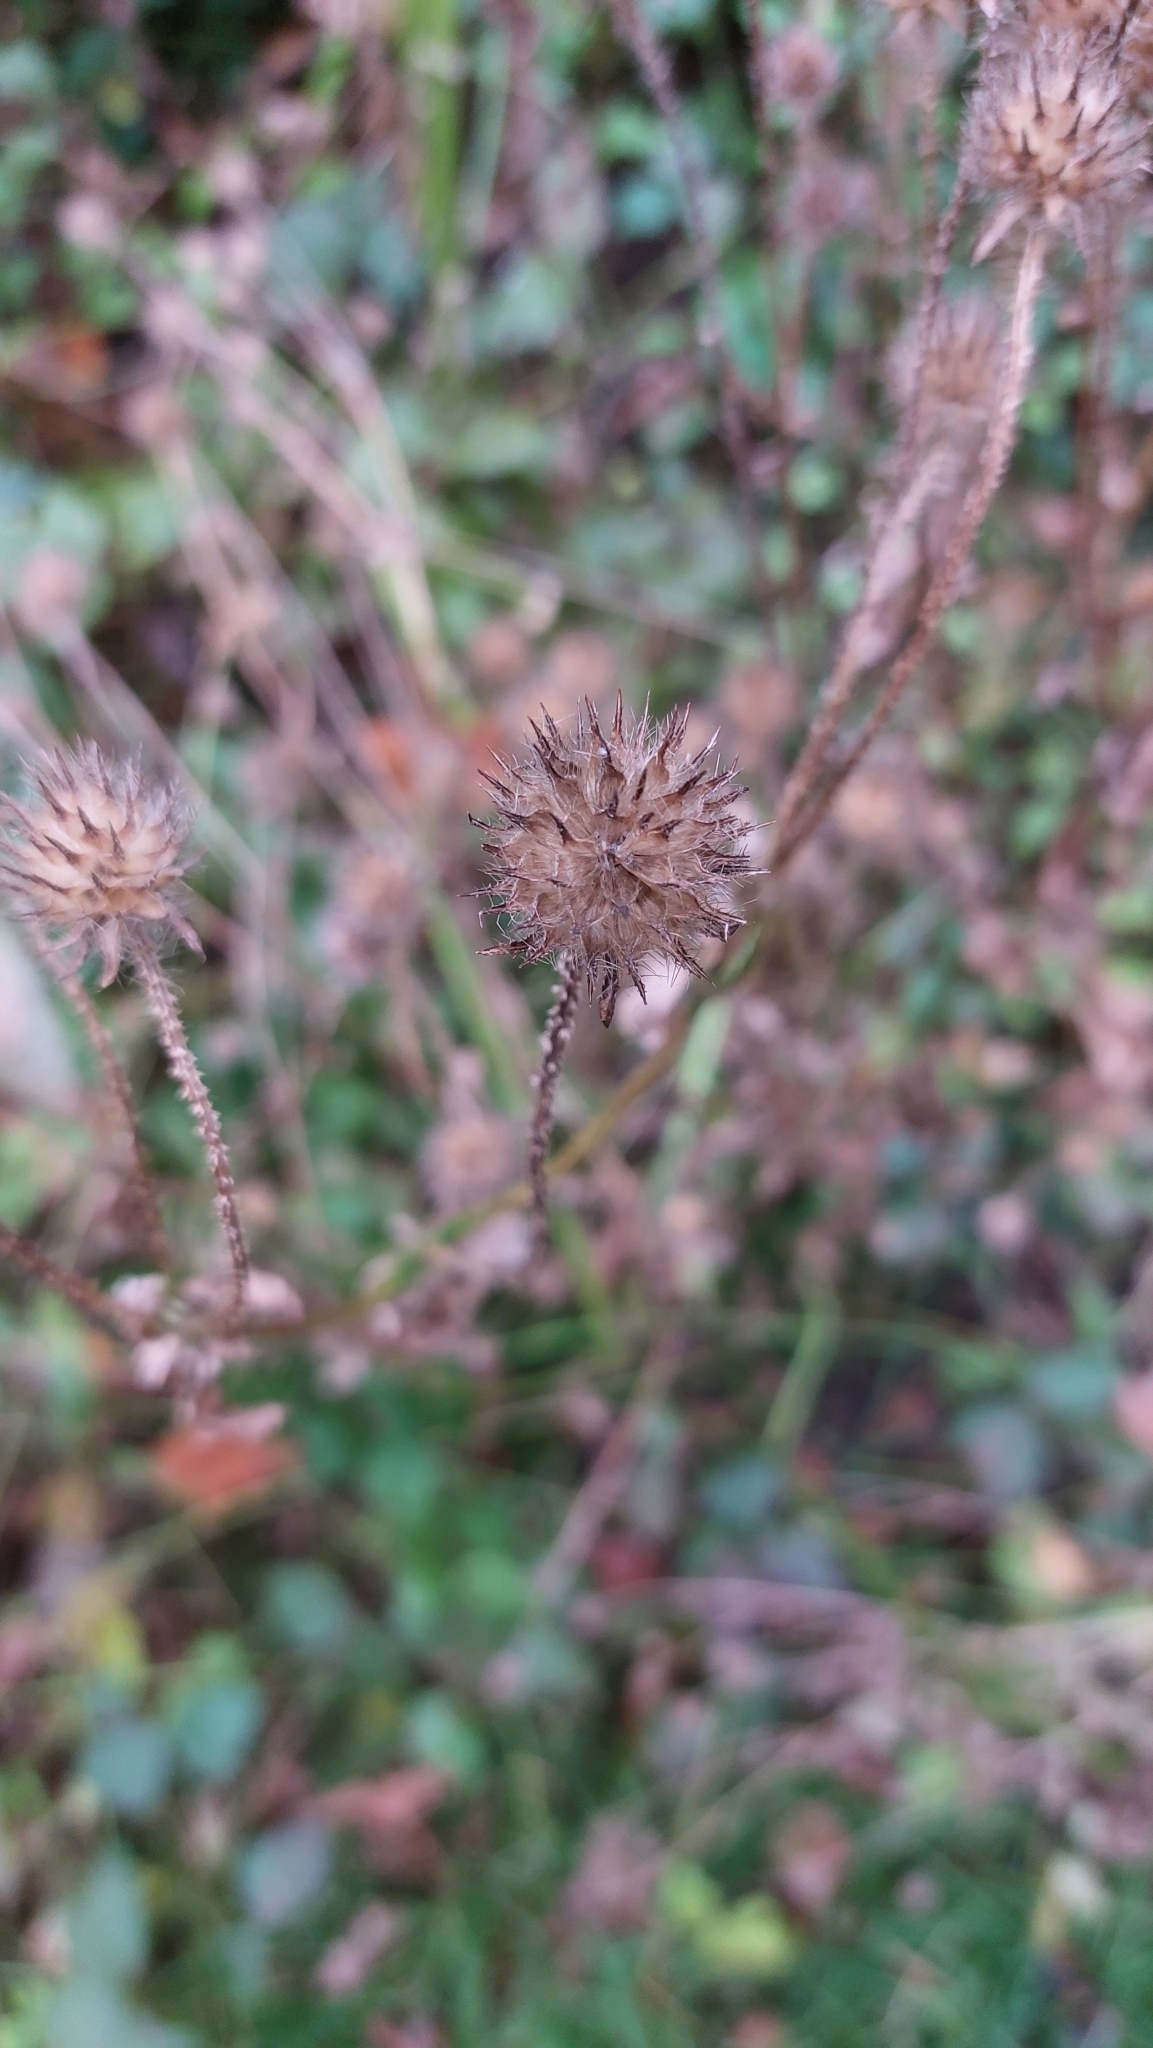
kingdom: Plantae
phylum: Tracheophyta
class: Magnoliopsida
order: Dipsacales
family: Caprifoliaceae
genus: Dipsacus
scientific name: Dipsacus pilosus
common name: Small teasel
